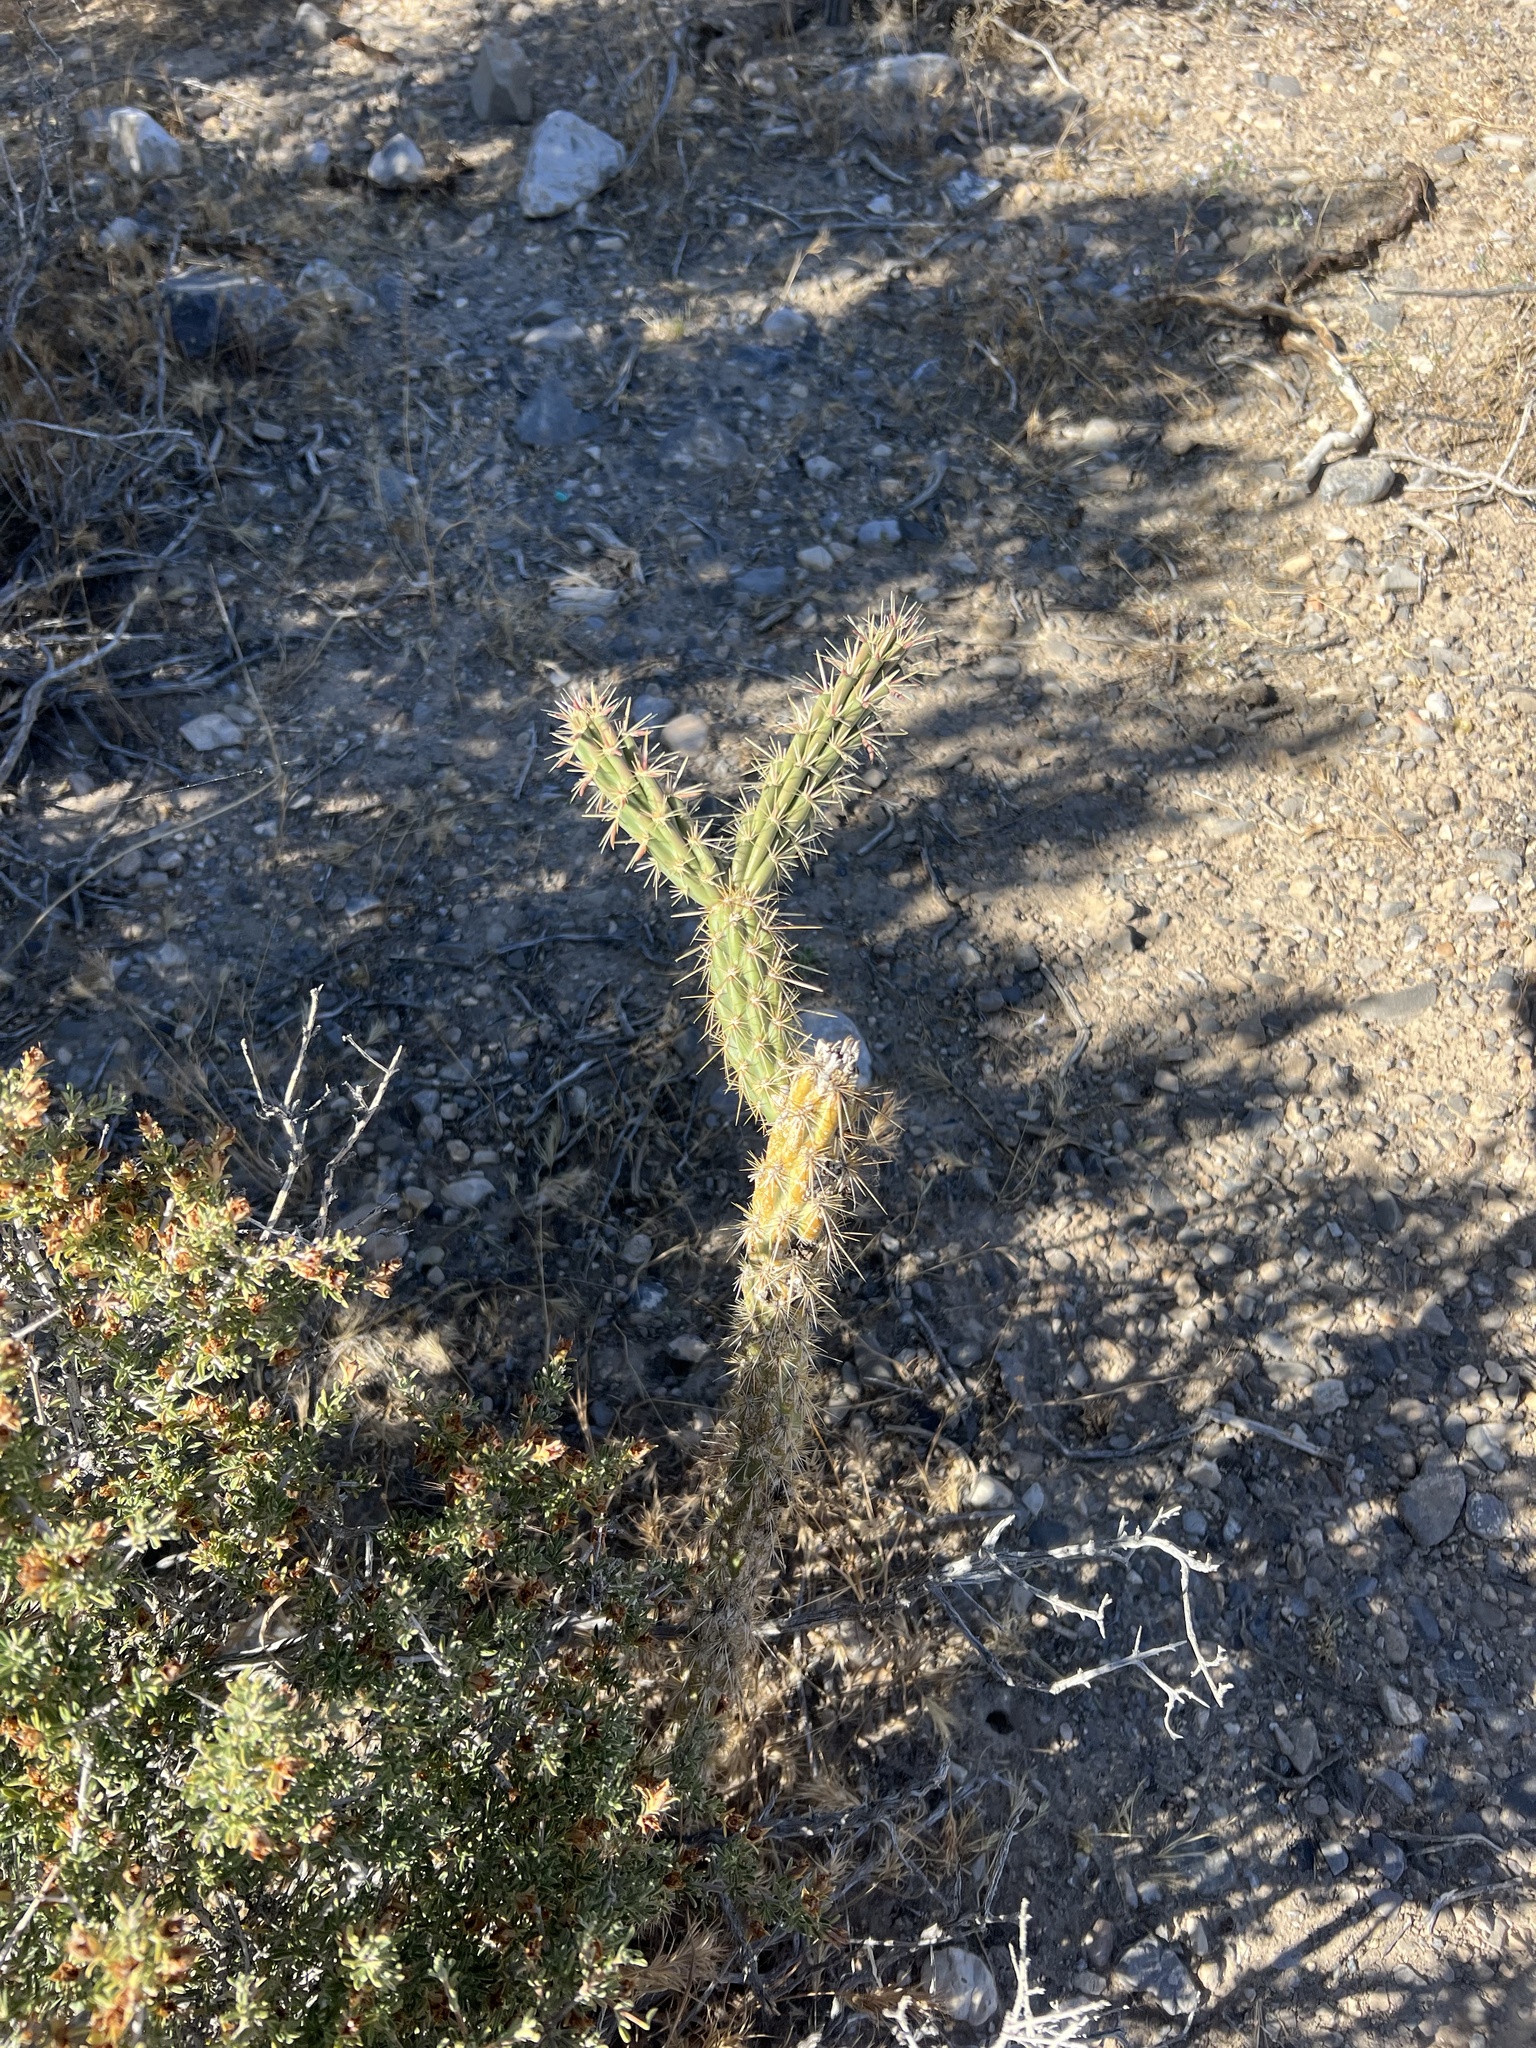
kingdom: Plantae
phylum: Tracheophyta
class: Magnoliopsida
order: Caryophyllales
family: Cactaceae
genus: Cylindropuntia
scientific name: Cylindropuntia acanthocarpa
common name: Buckhorn cholla
